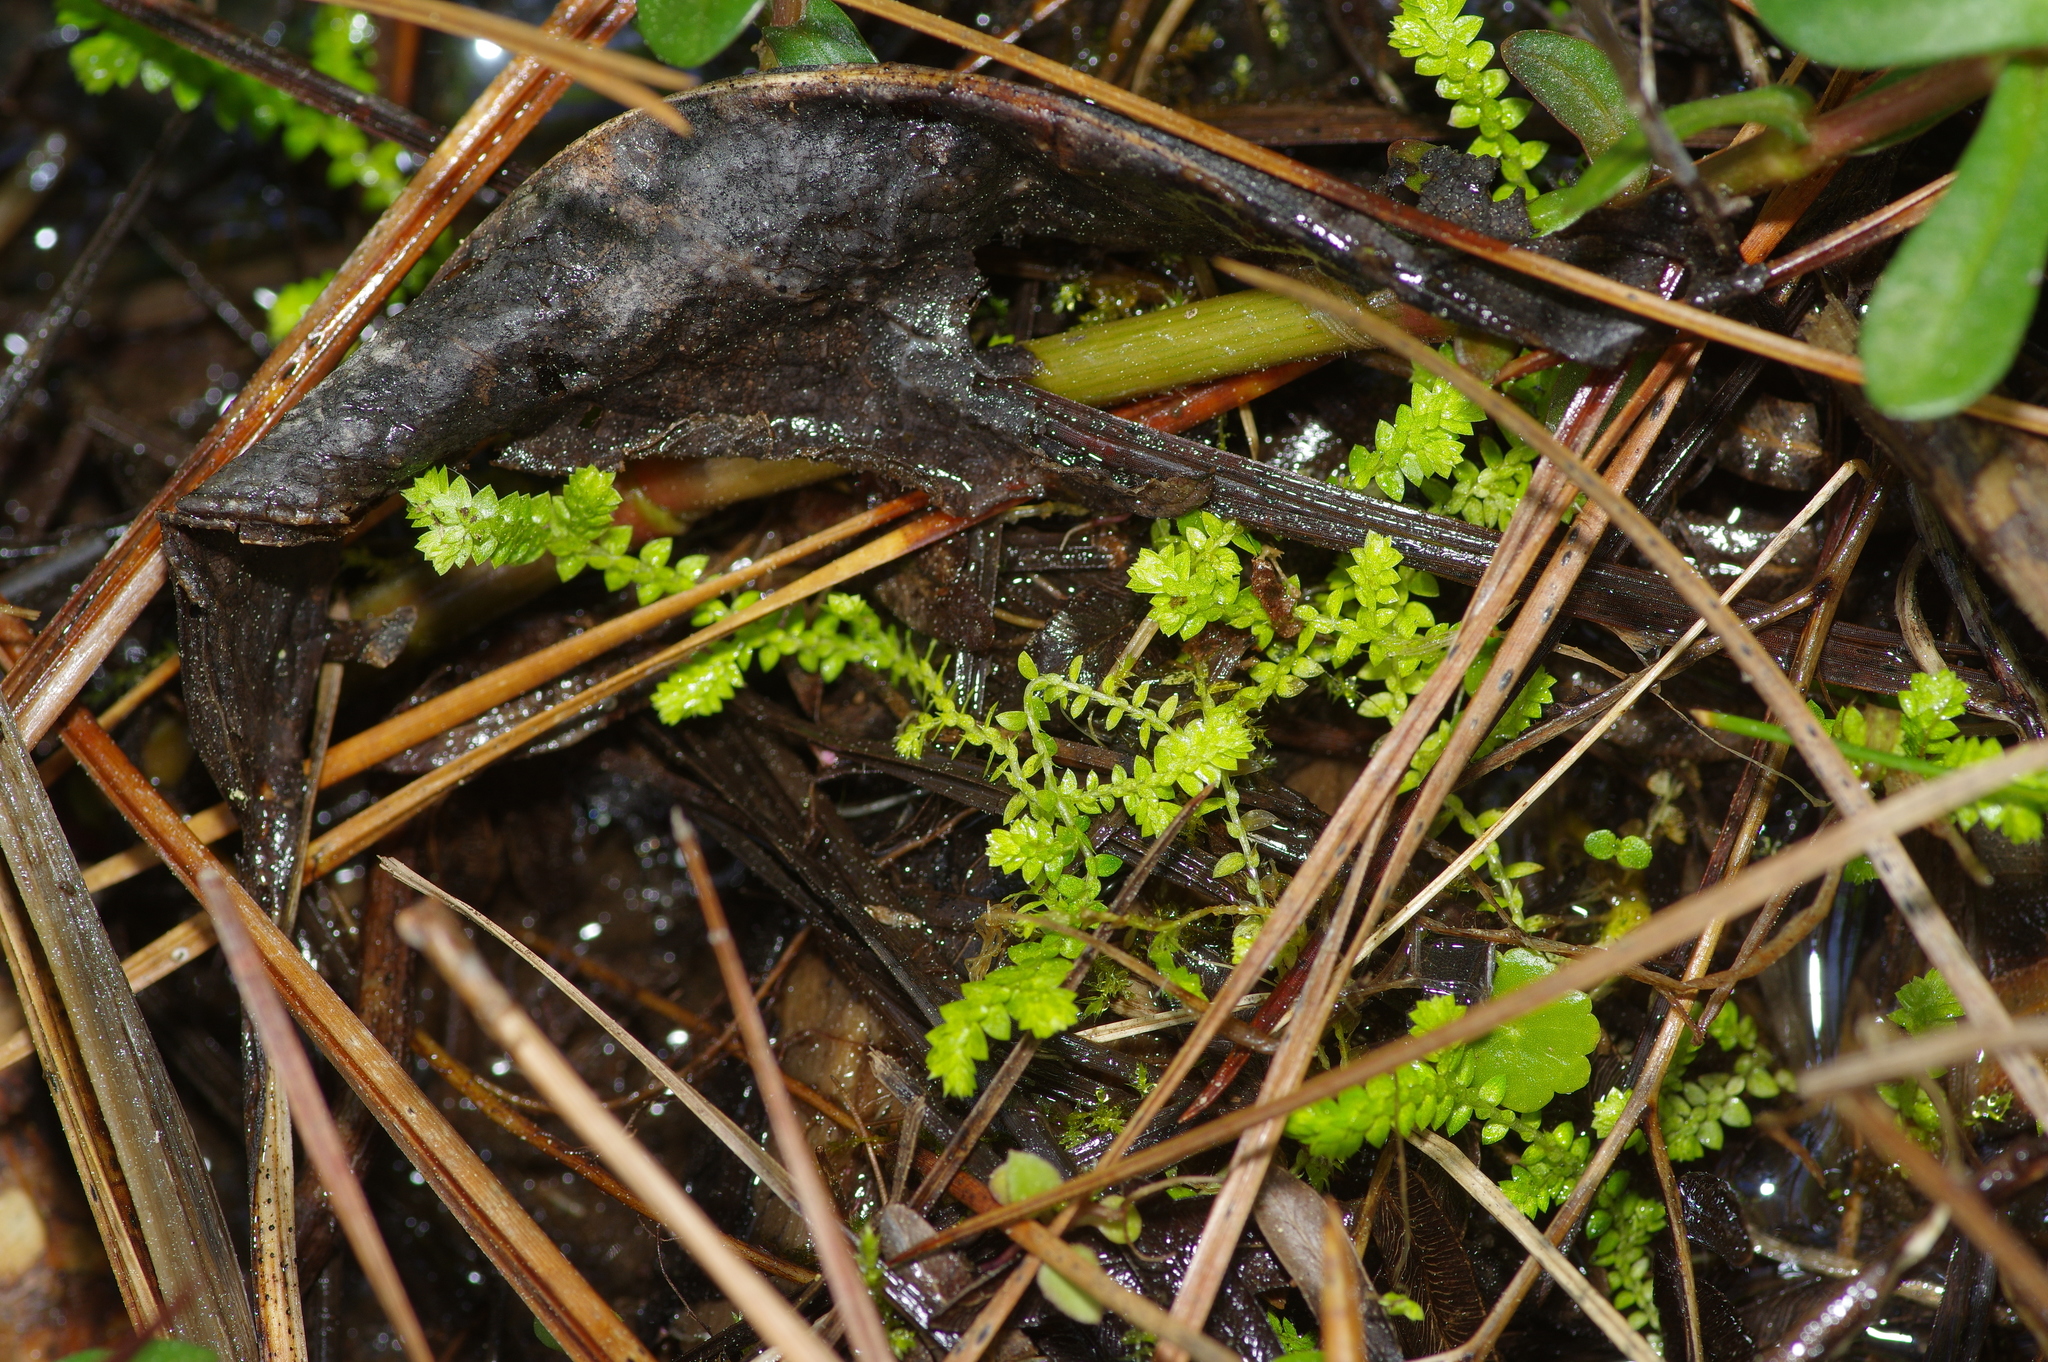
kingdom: Plantae
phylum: Tracheophyta
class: Lycopodiopsida
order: Selaginellales
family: Selaginellaceae
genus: Selaginella
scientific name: Selaginella apoda
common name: Creeping spikemoss
